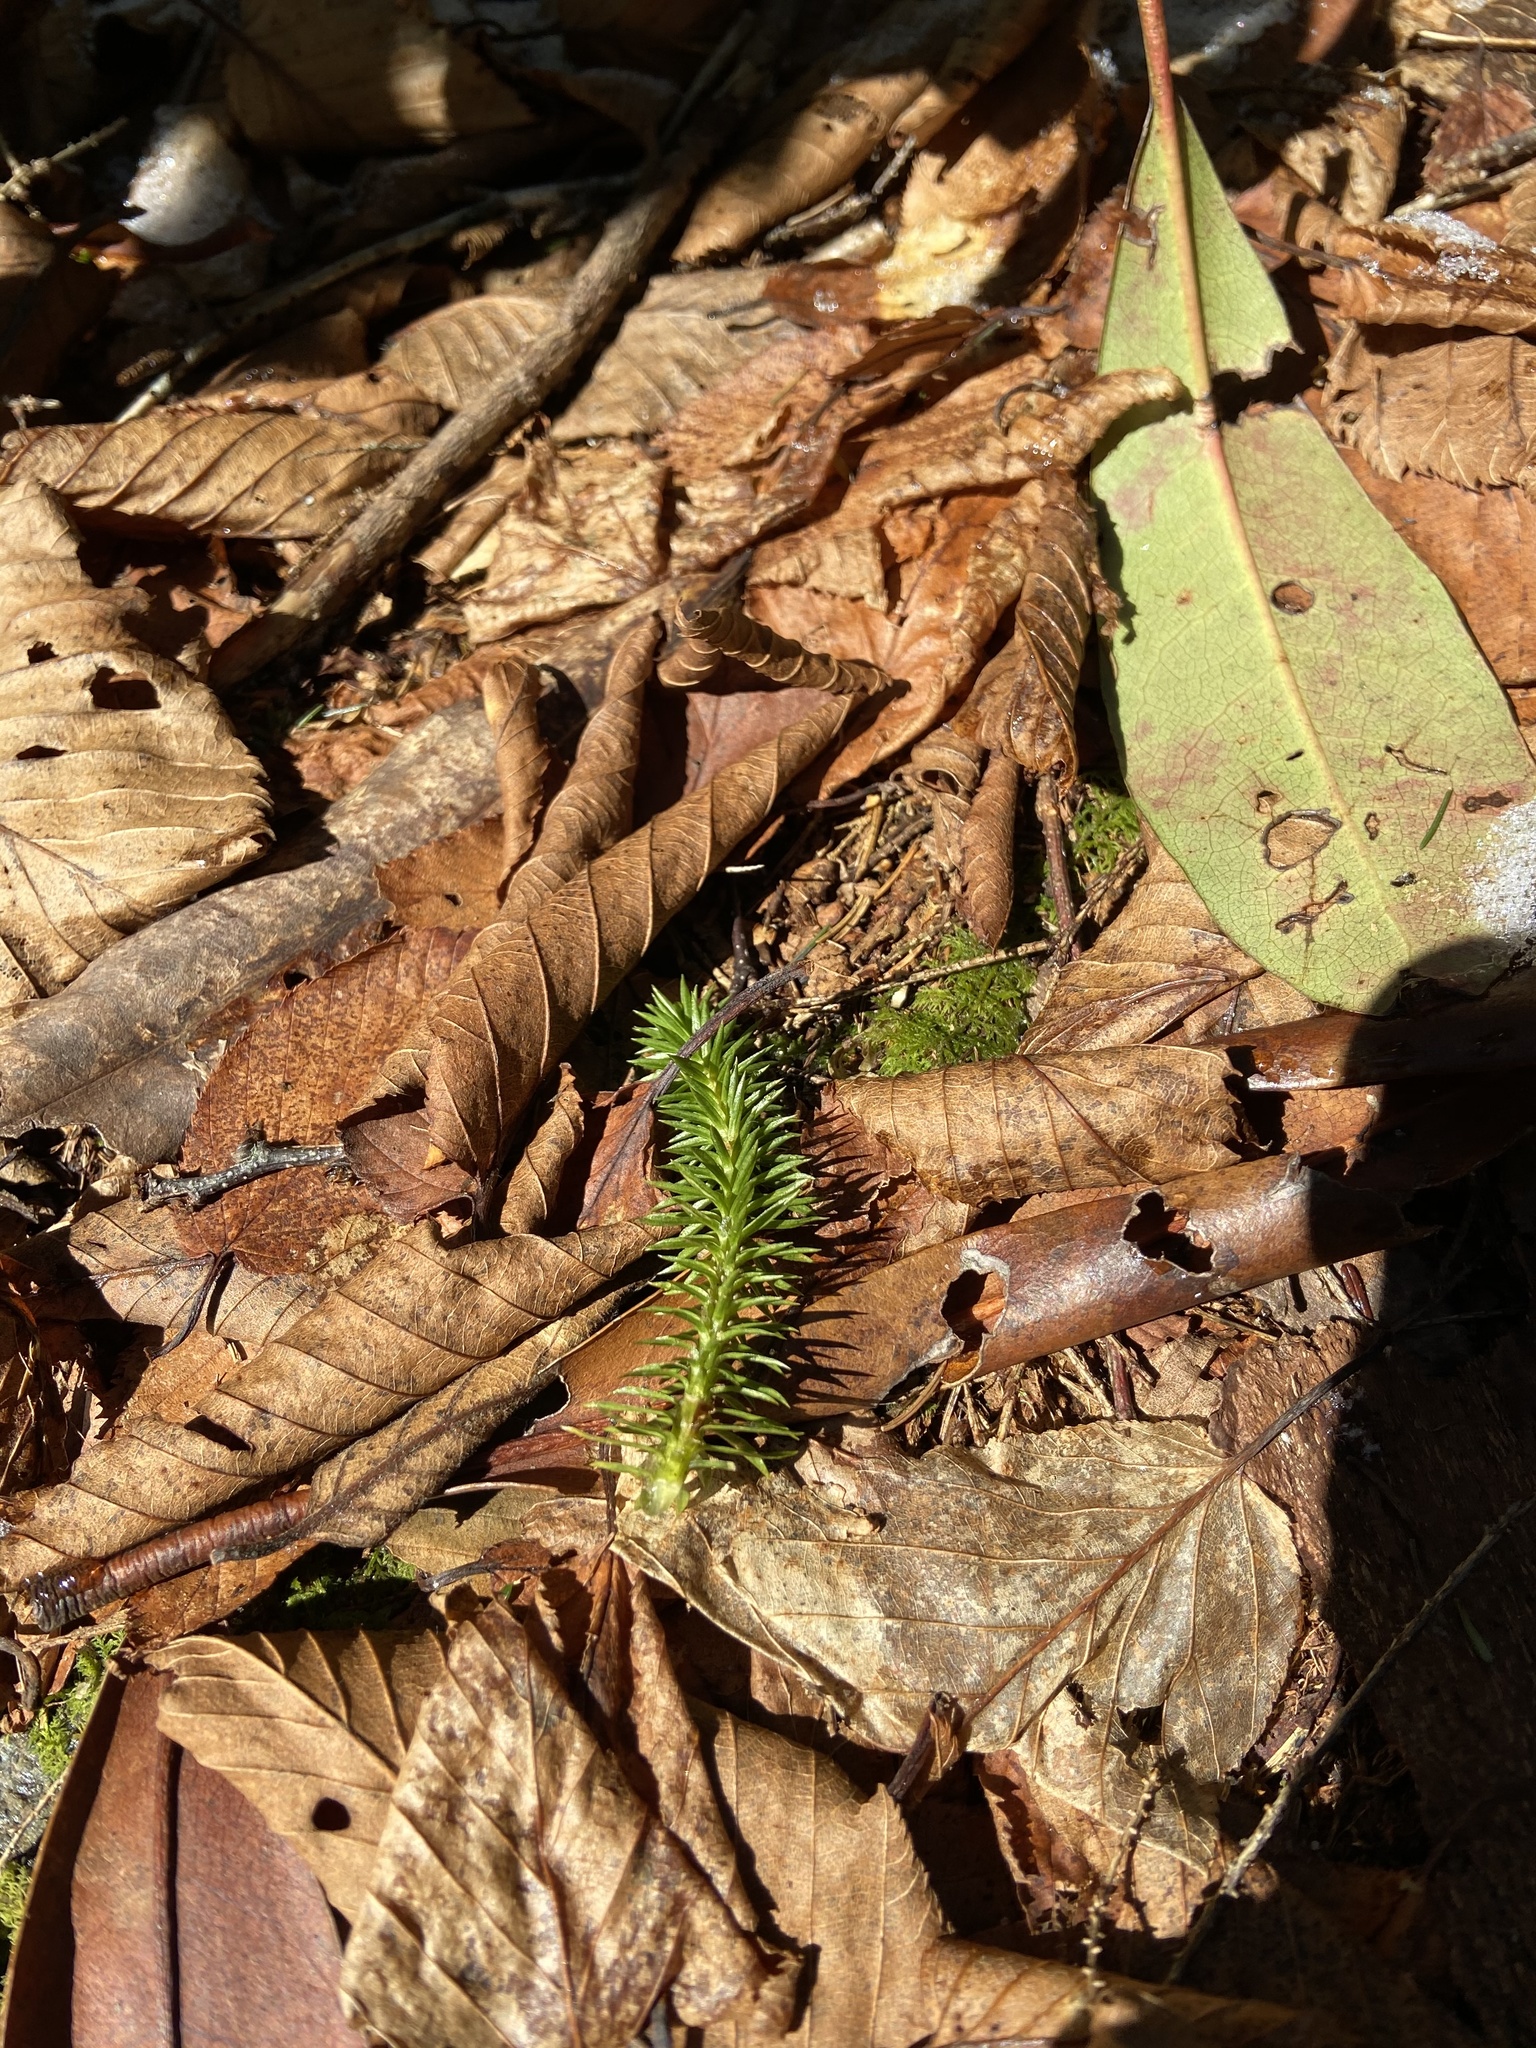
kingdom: Plantae
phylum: Tracheophyta
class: Lycopodiopsida
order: Lycopodiales
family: Lycopodiaceae
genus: Huperzia
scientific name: Huperzia porophila
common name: Rock clubmoss
